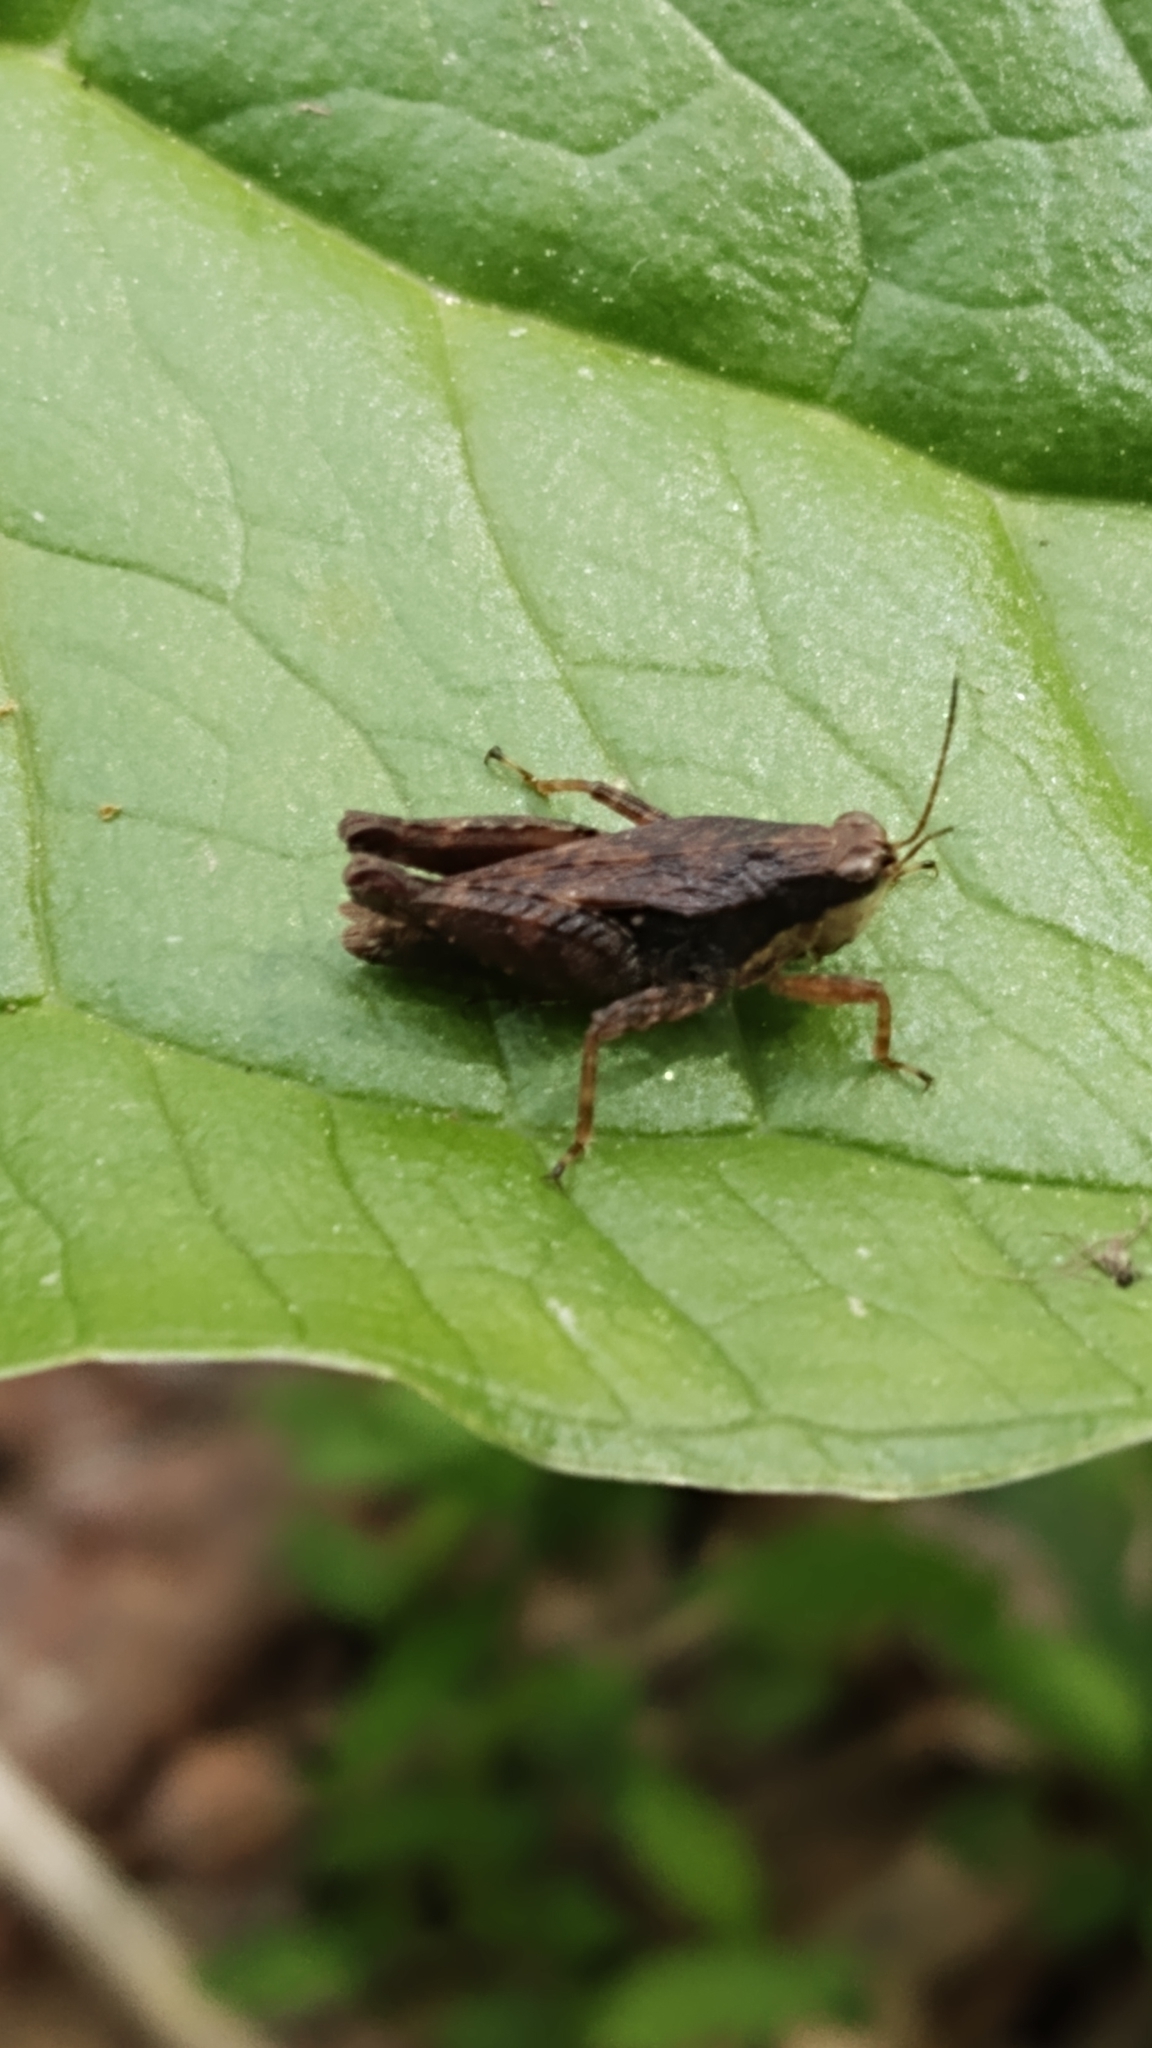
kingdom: Animalia
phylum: Arthropoda
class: Insecta
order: Orthoptera
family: Tetrigidae
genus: Tettigidea
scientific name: Tettigidea laterale
